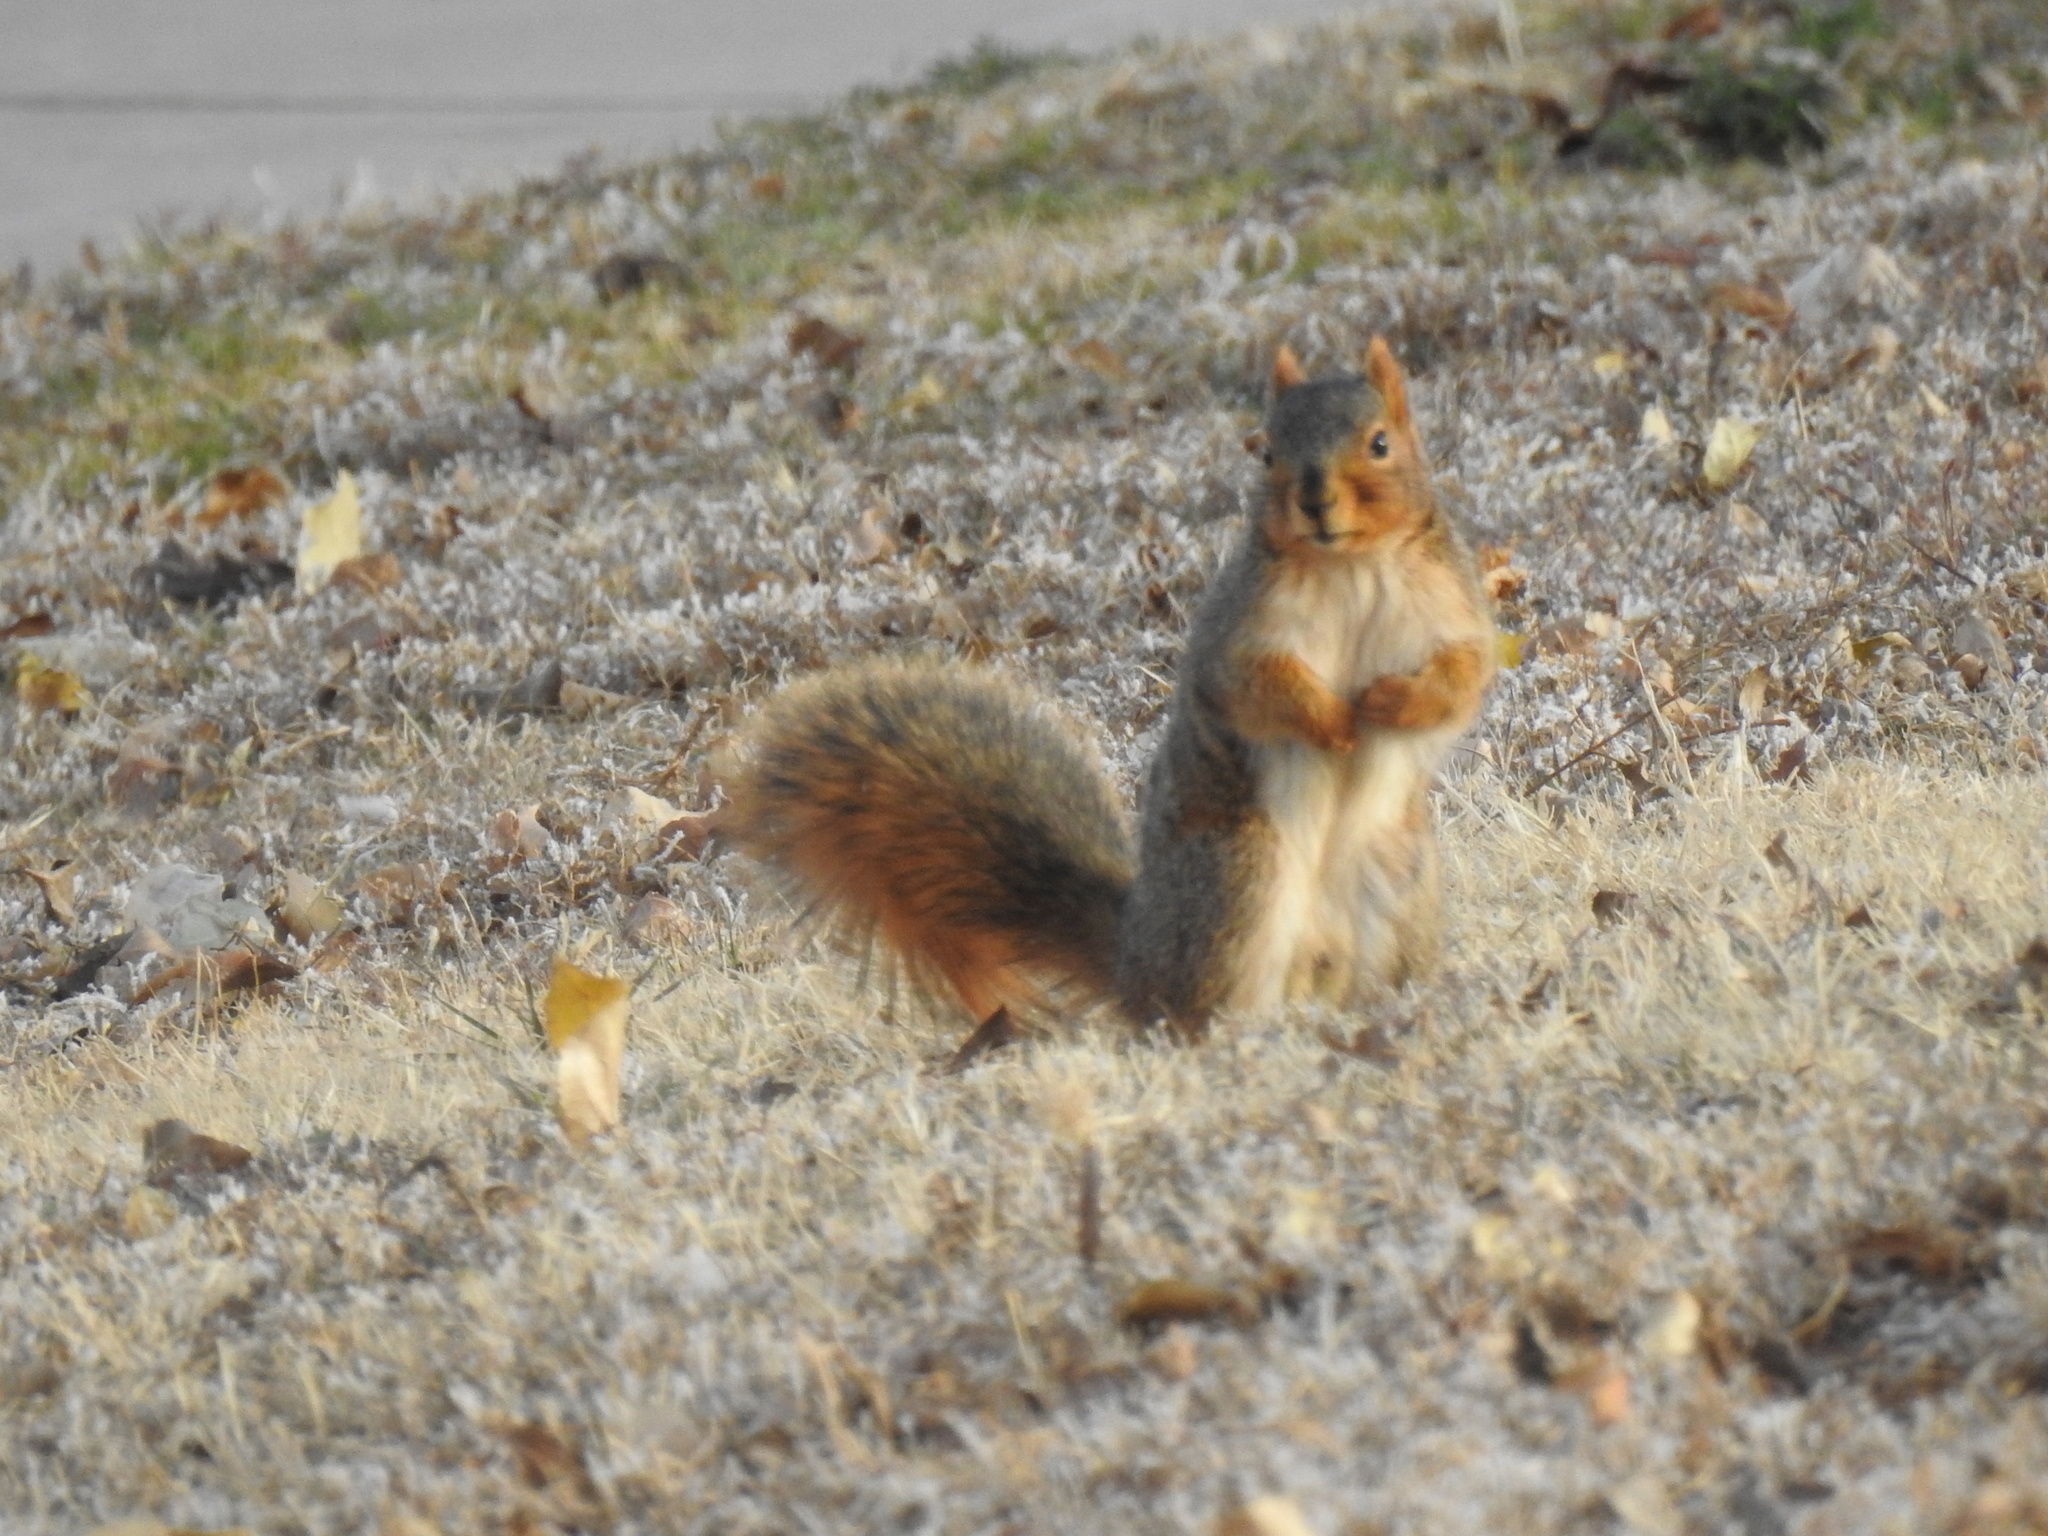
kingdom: Animalia
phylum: Chordata
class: Mammalia
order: Rodentia
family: Sciuridae
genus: Sciurus
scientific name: Sciurus niger
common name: Fox squirrel
